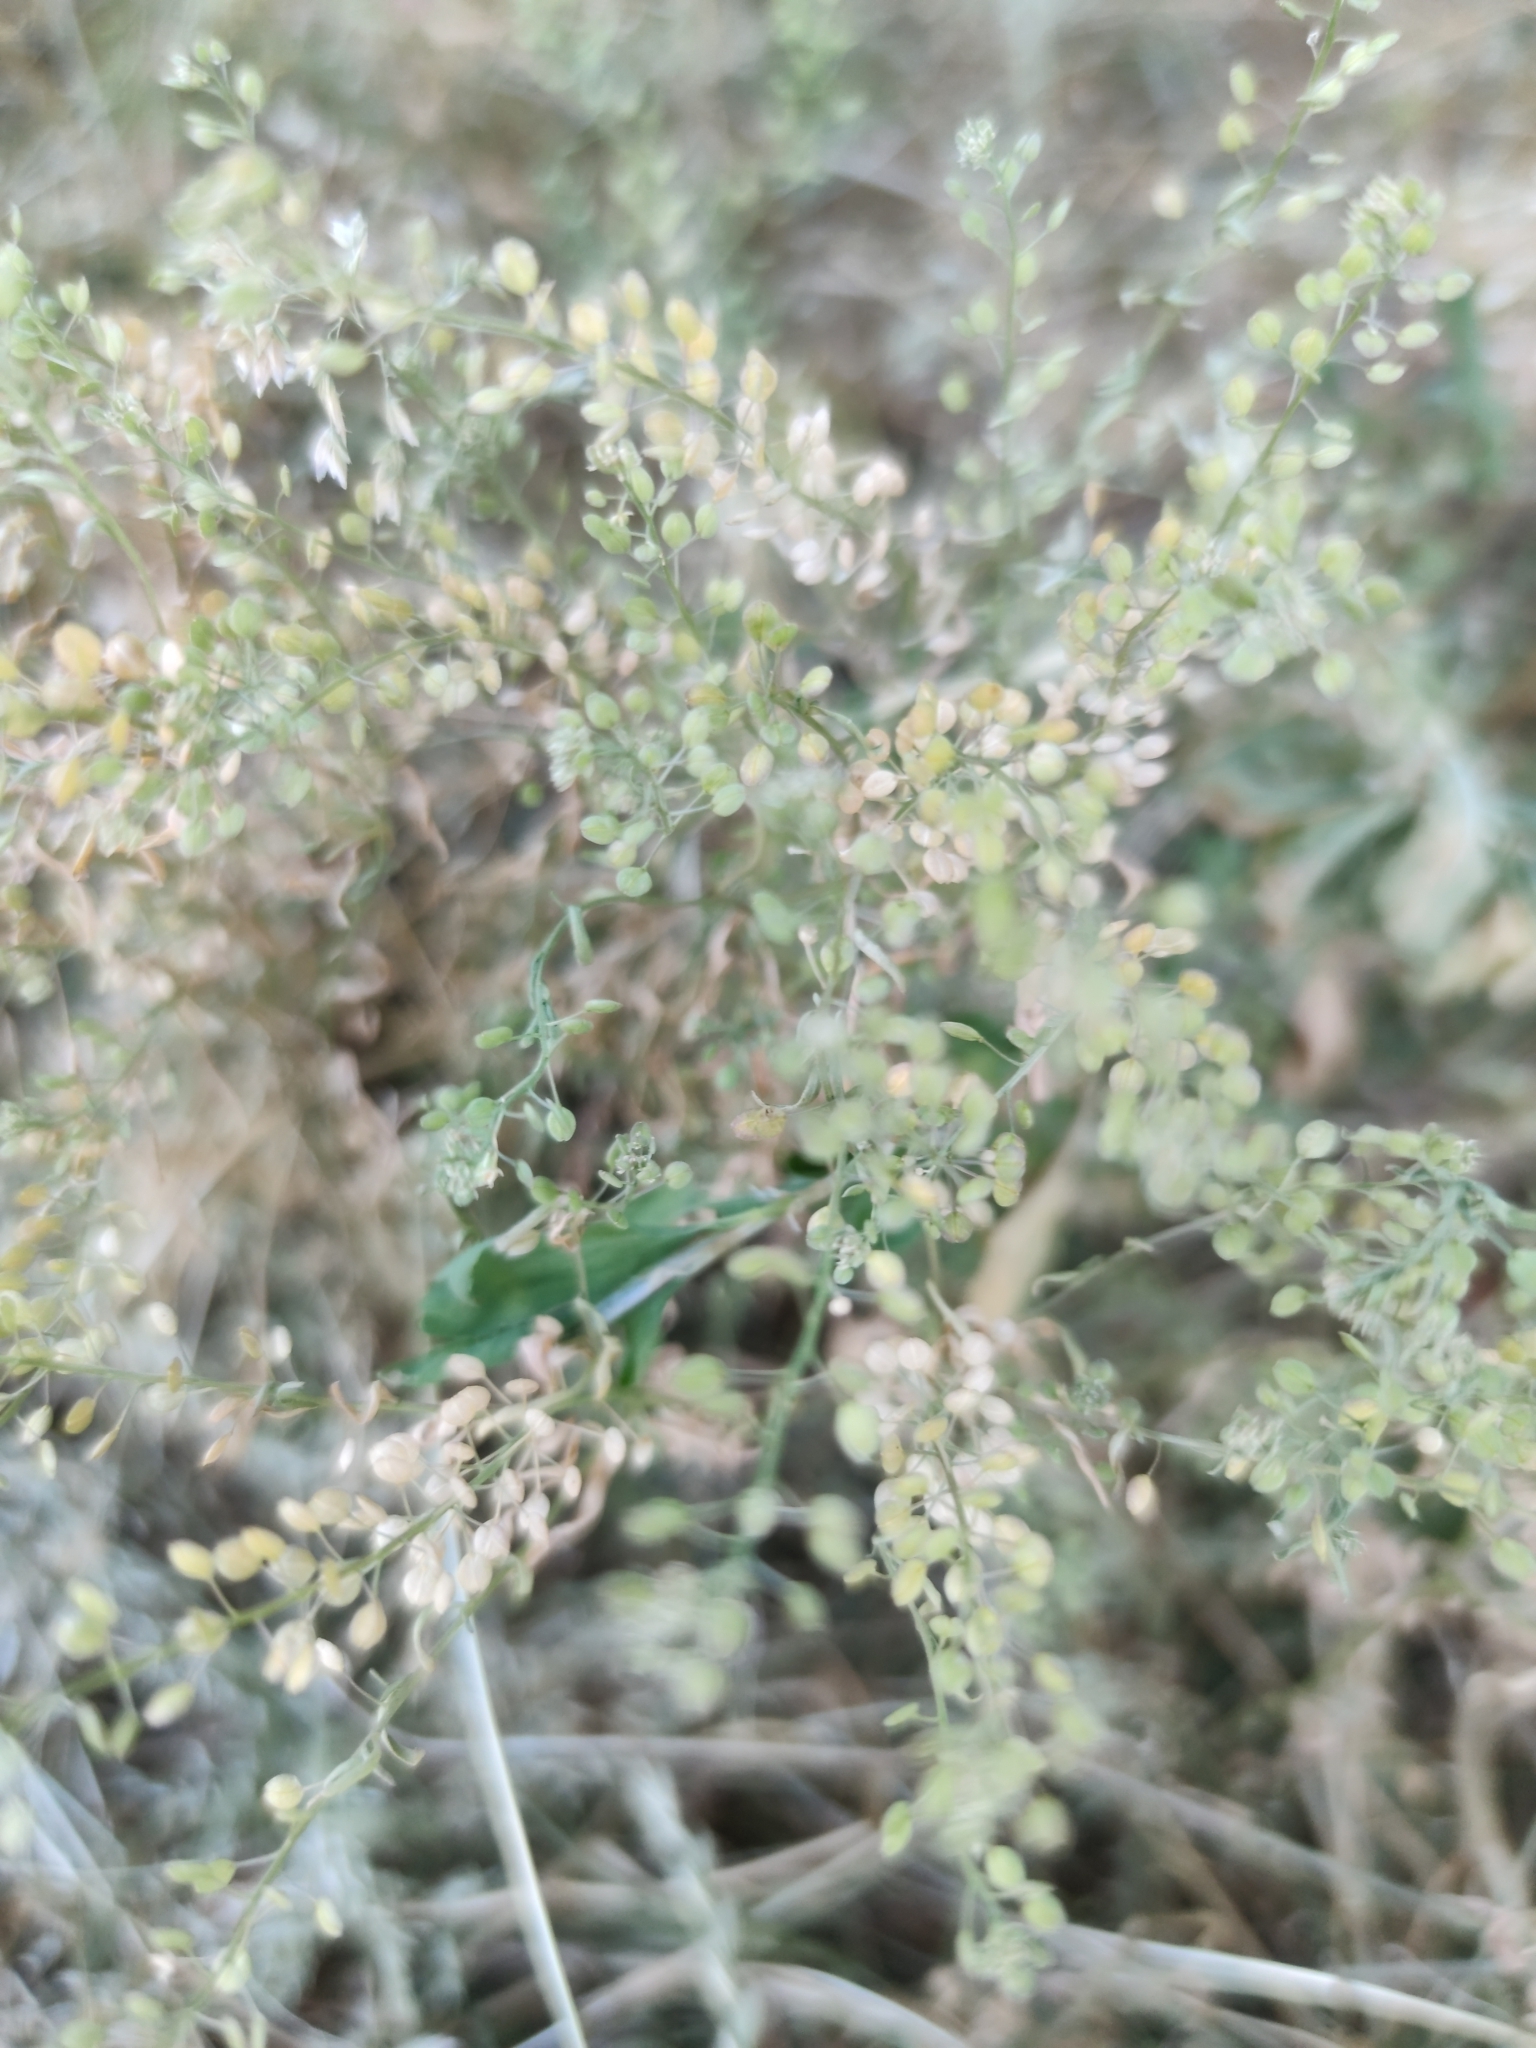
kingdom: Plantae
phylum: Tracheophyta
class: Magnoliopsida
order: Brassicales
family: Brassicaceae
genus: Lepidium
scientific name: Lepidium ruderale
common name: Narrow-leaved pepperwort
